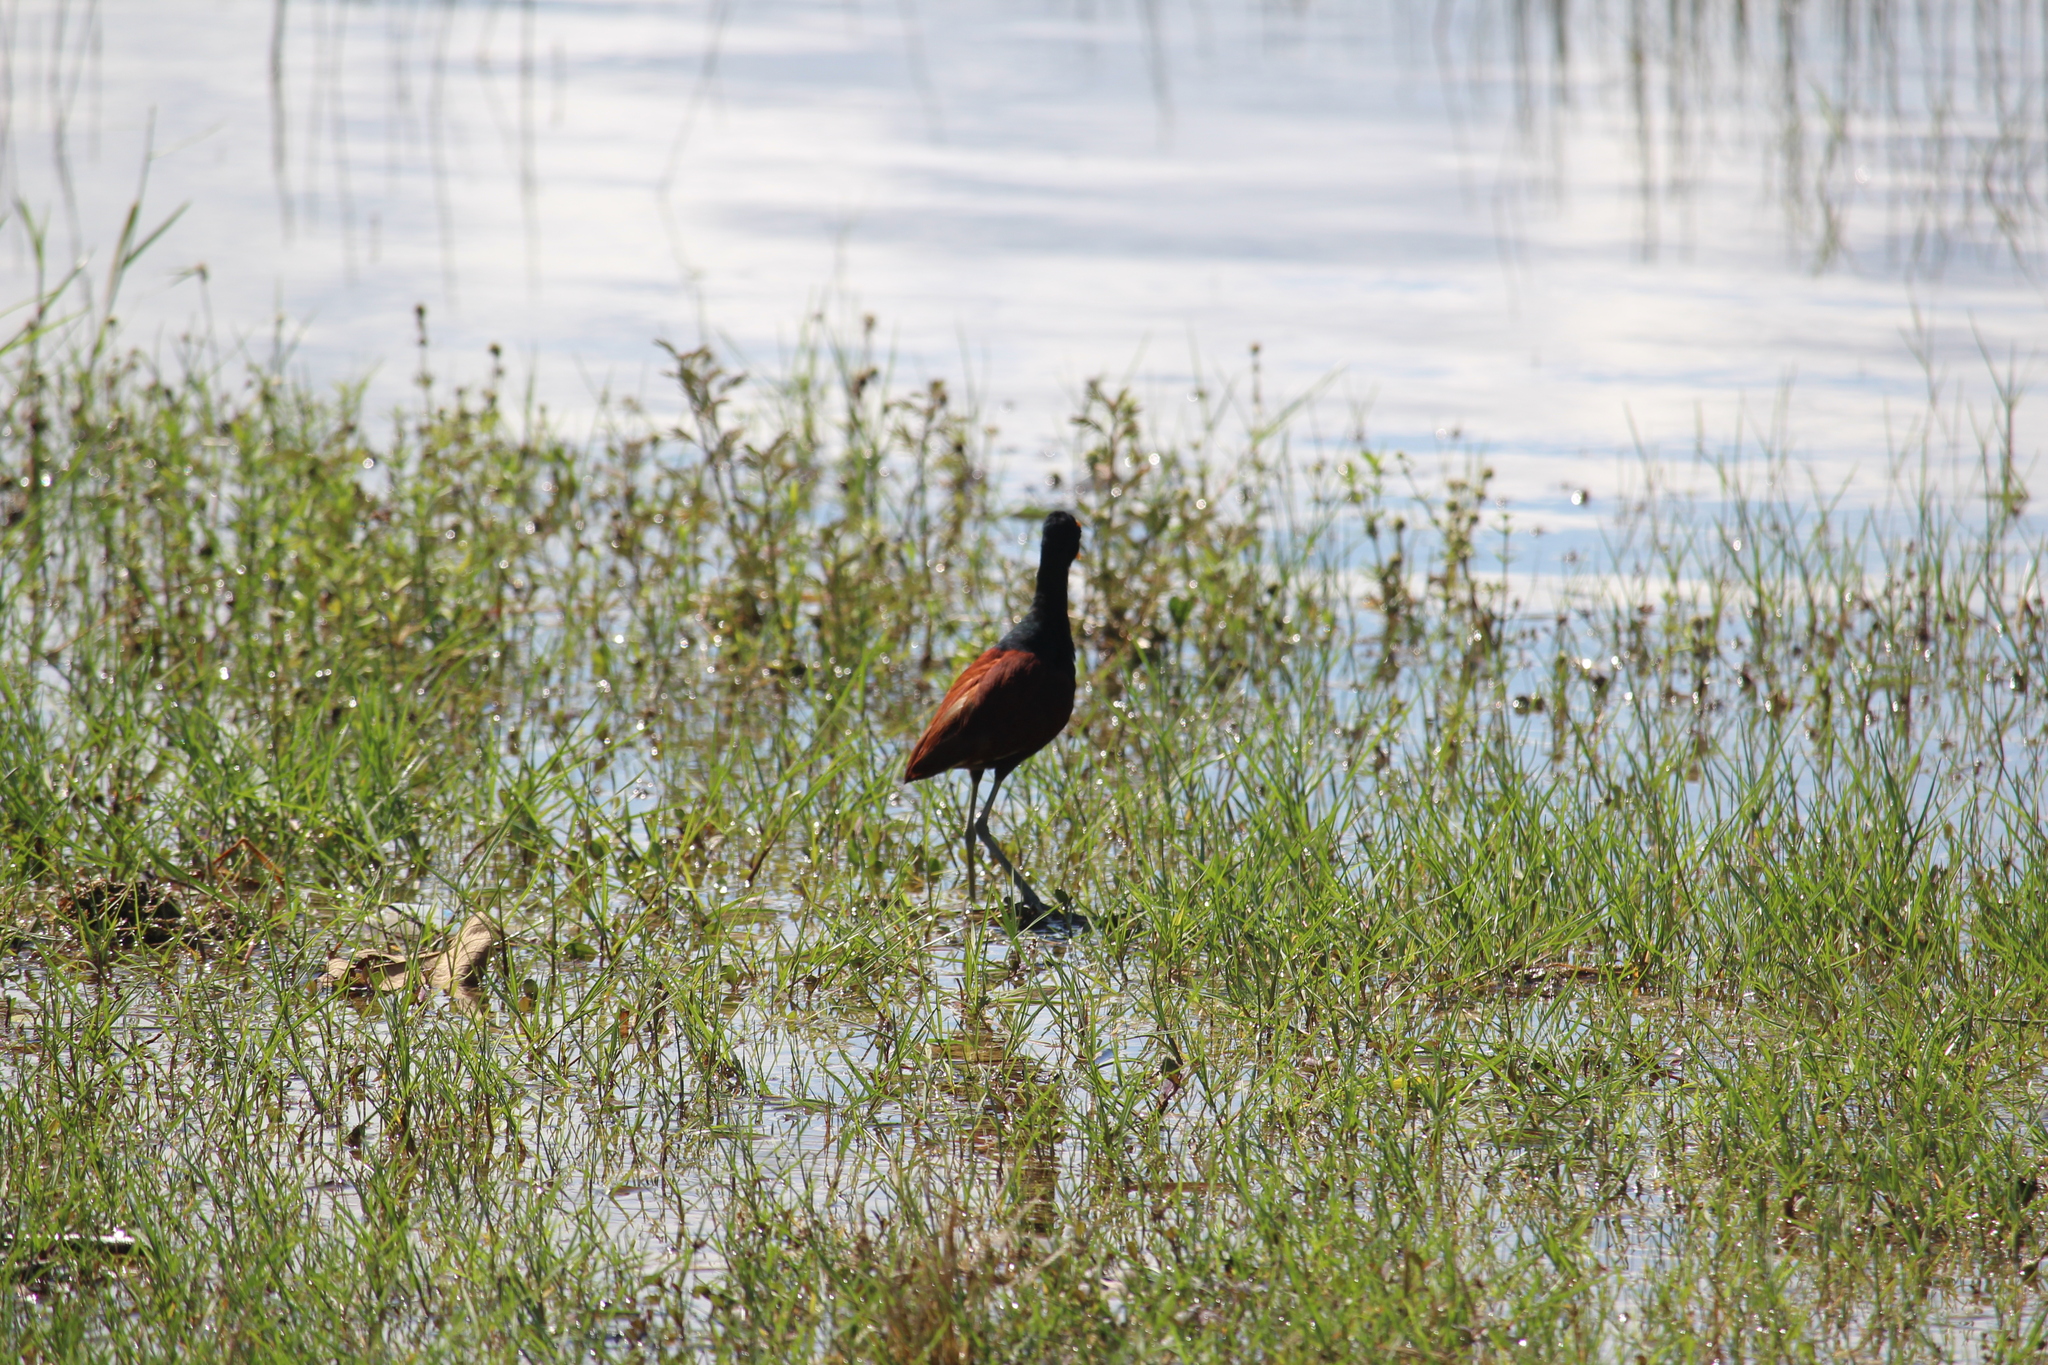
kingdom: Animalia
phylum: Chordata
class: Aves
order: Charadriiformes
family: Jacanidae
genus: Jacana
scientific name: Jacana spinosa
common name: Northern jacana
